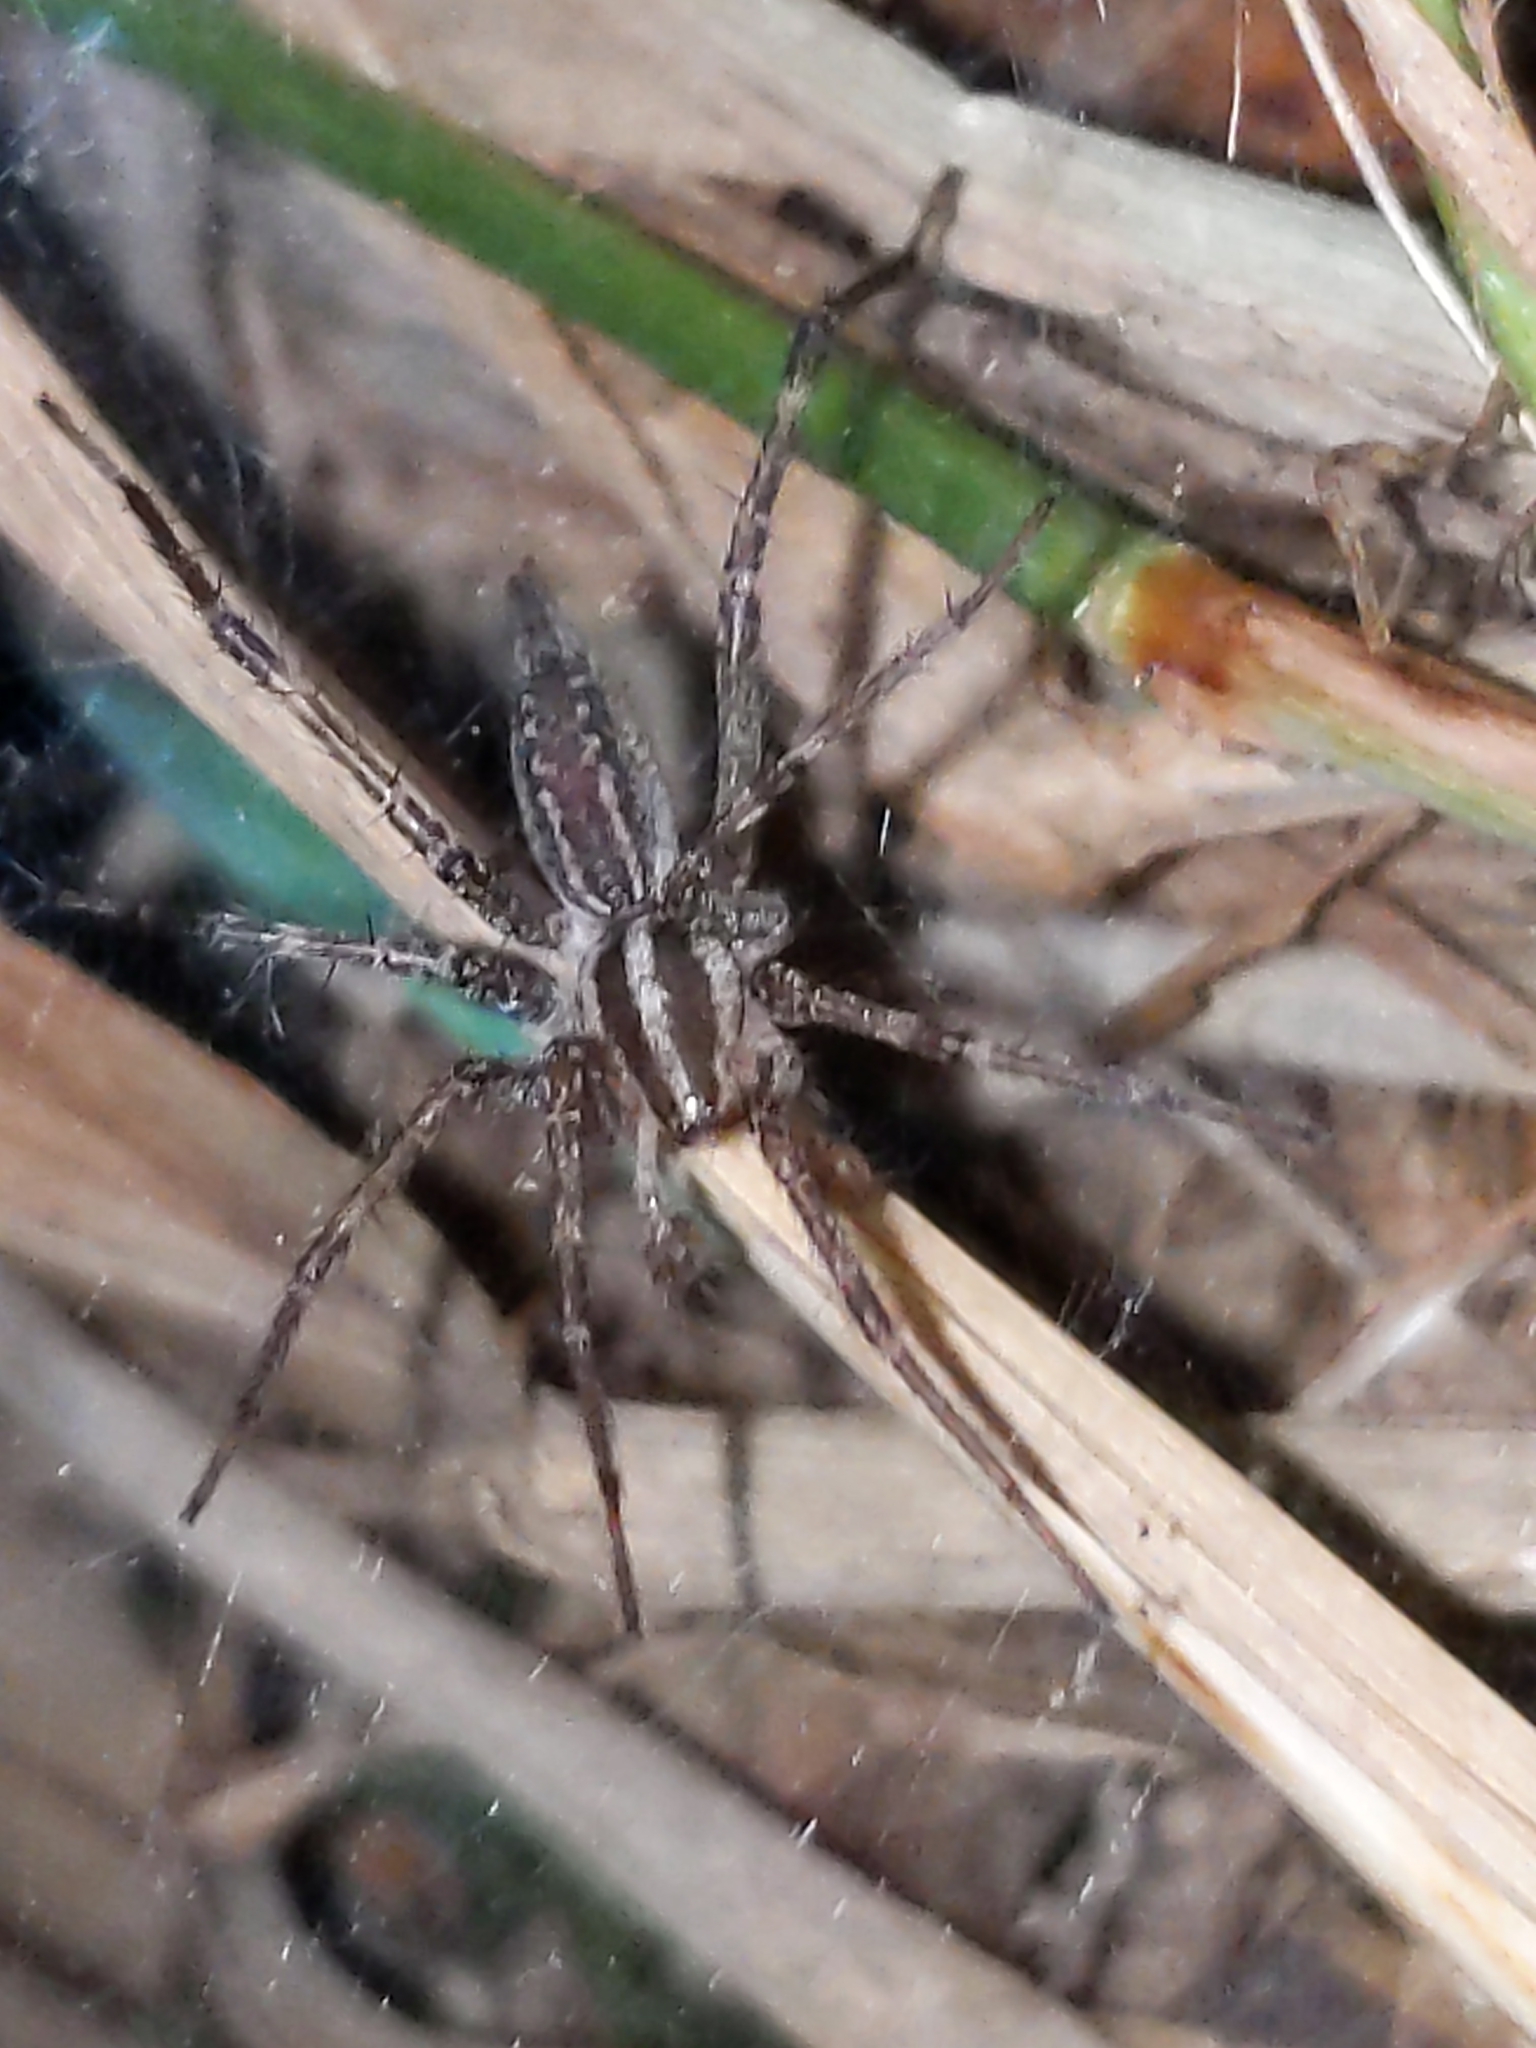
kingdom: Animalia
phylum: Arthropoda
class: Arachnida
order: Araneae
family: Agelenidae
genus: Agelenopsis
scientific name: Agelenopsis
